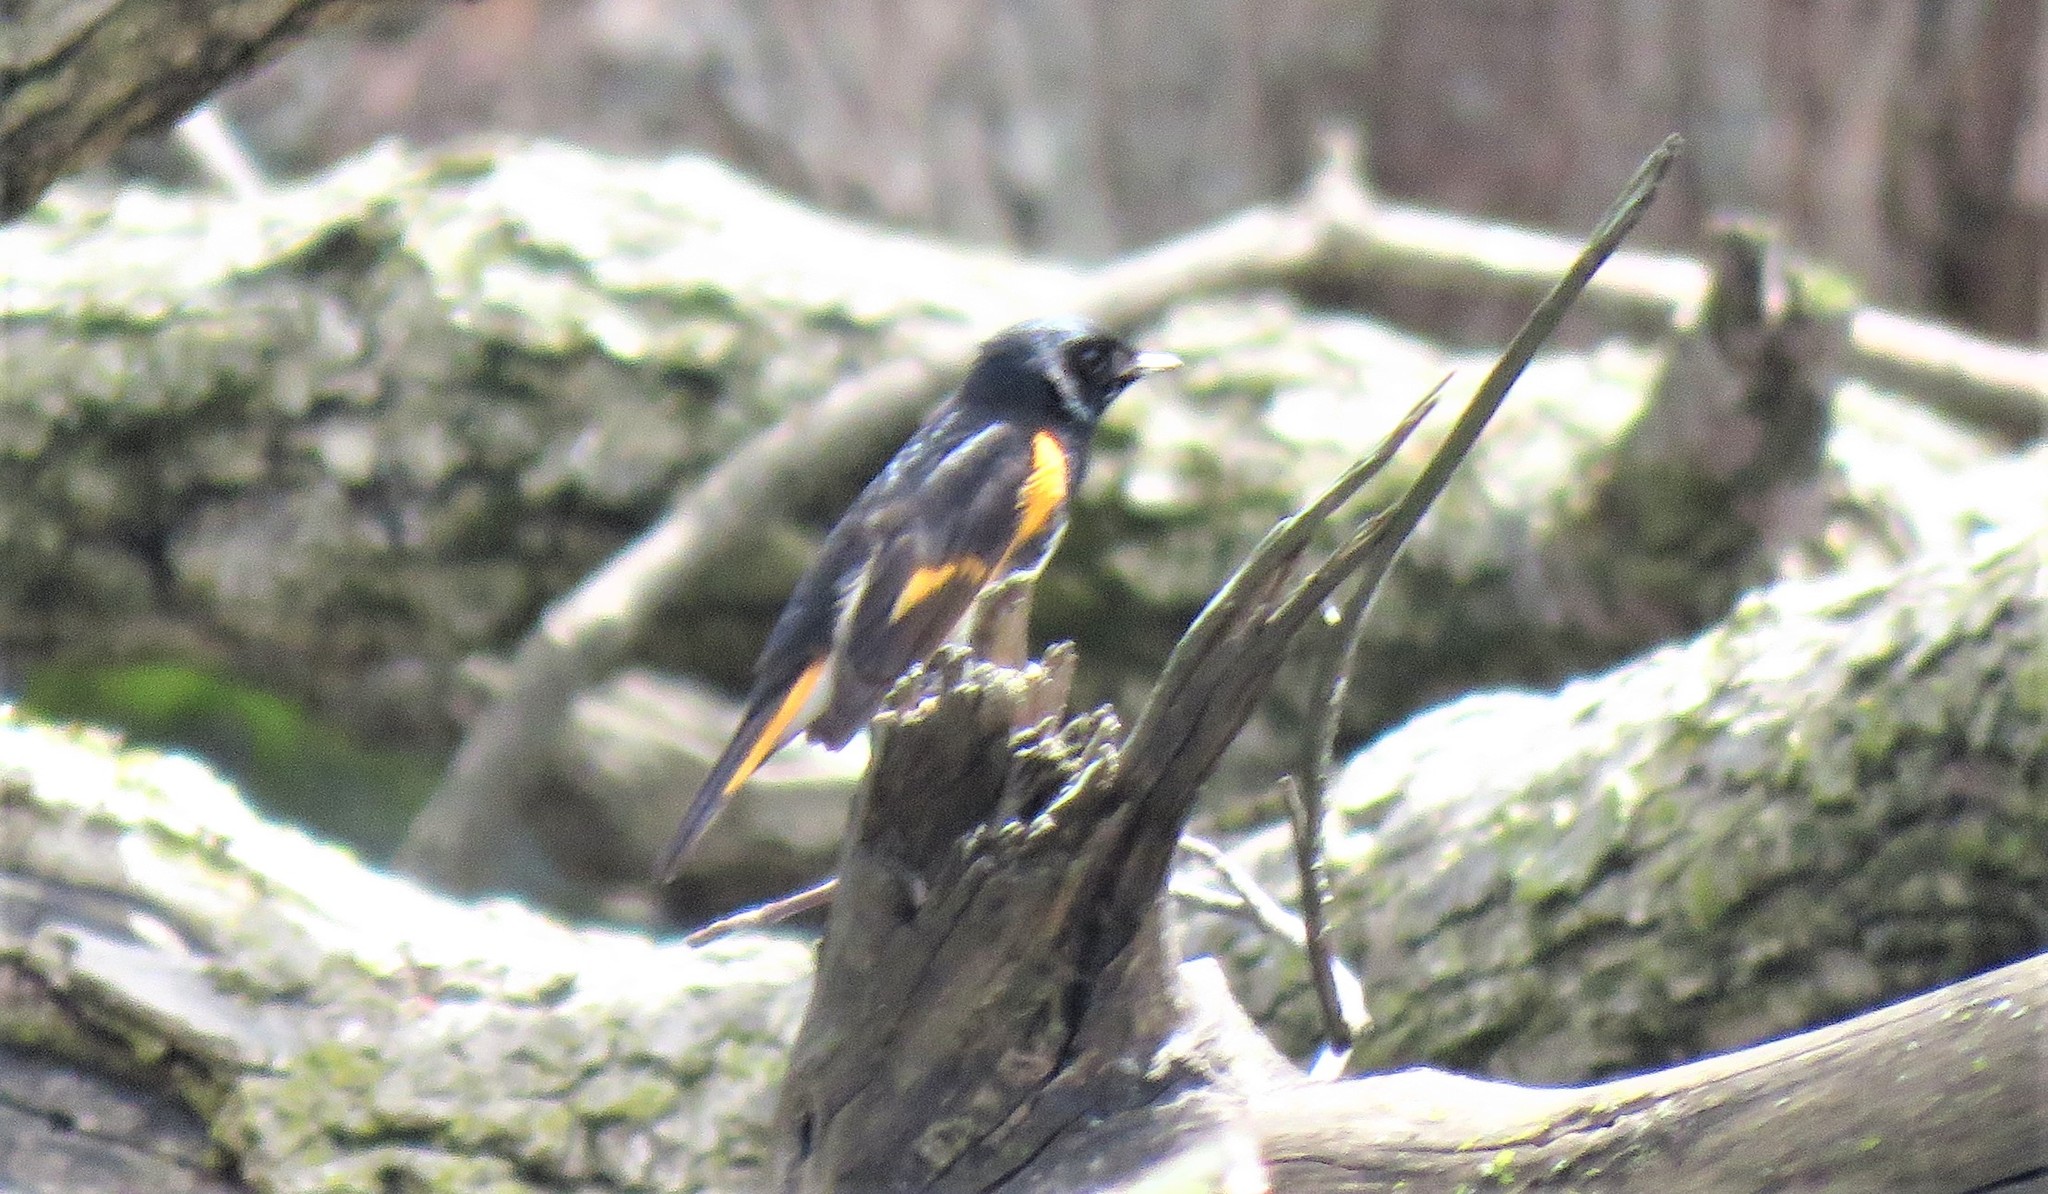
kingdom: Animalia
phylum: Chordata
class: Aves
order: Passeriformes
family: Parulidae
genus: Setophaga
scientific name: Setophaga ruticilla
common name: American redstart
